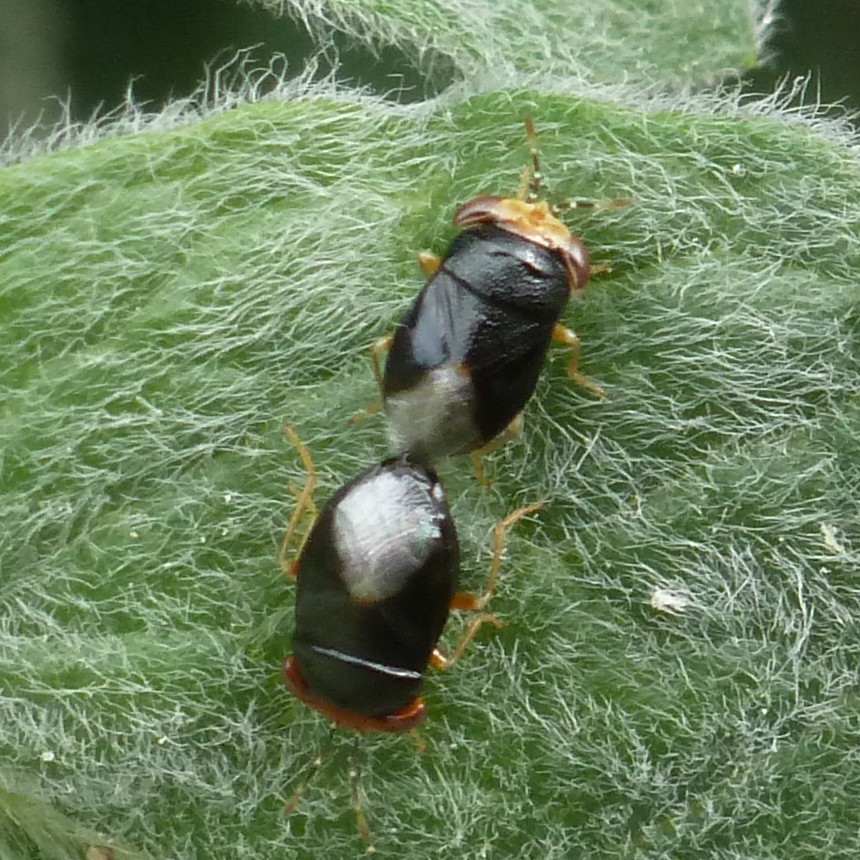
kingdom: Animalia
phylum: Arthropoda
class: Insecta
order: Hemiptera
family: Geocoridae
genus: Geocoris
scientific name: Geocoris erythrocephala
